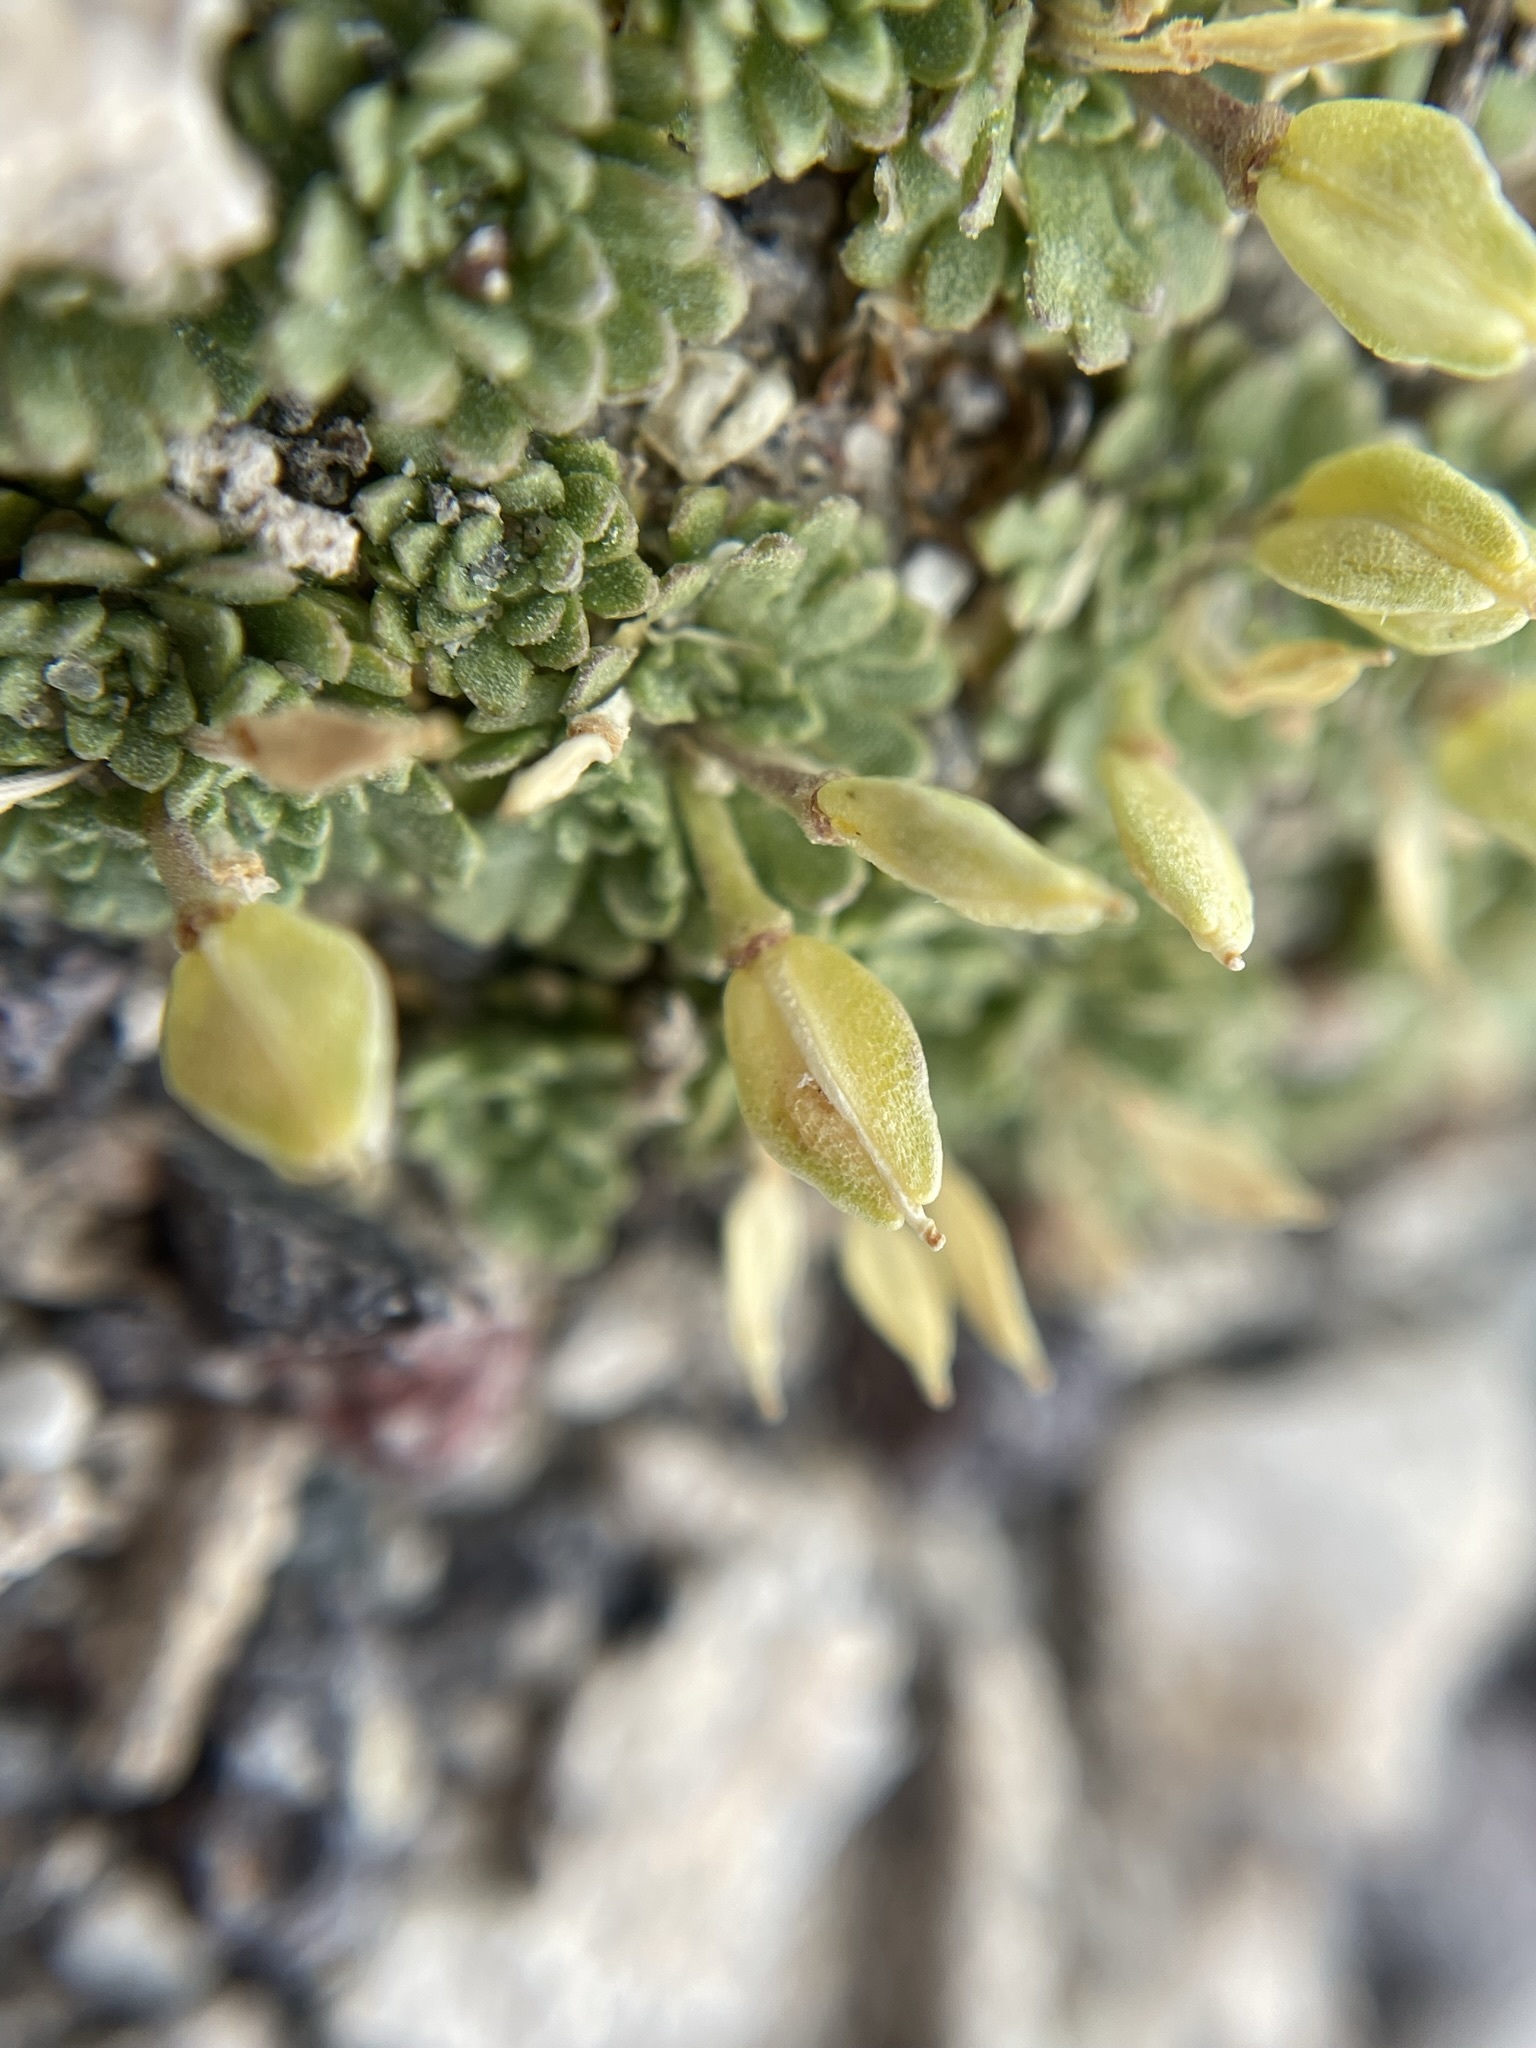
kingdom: Plantae
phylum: Tracheophyta
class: Magnoliopsida
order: Brassicales
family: Brassicaceae
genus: Lepidium
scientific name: Lepidium nanum
